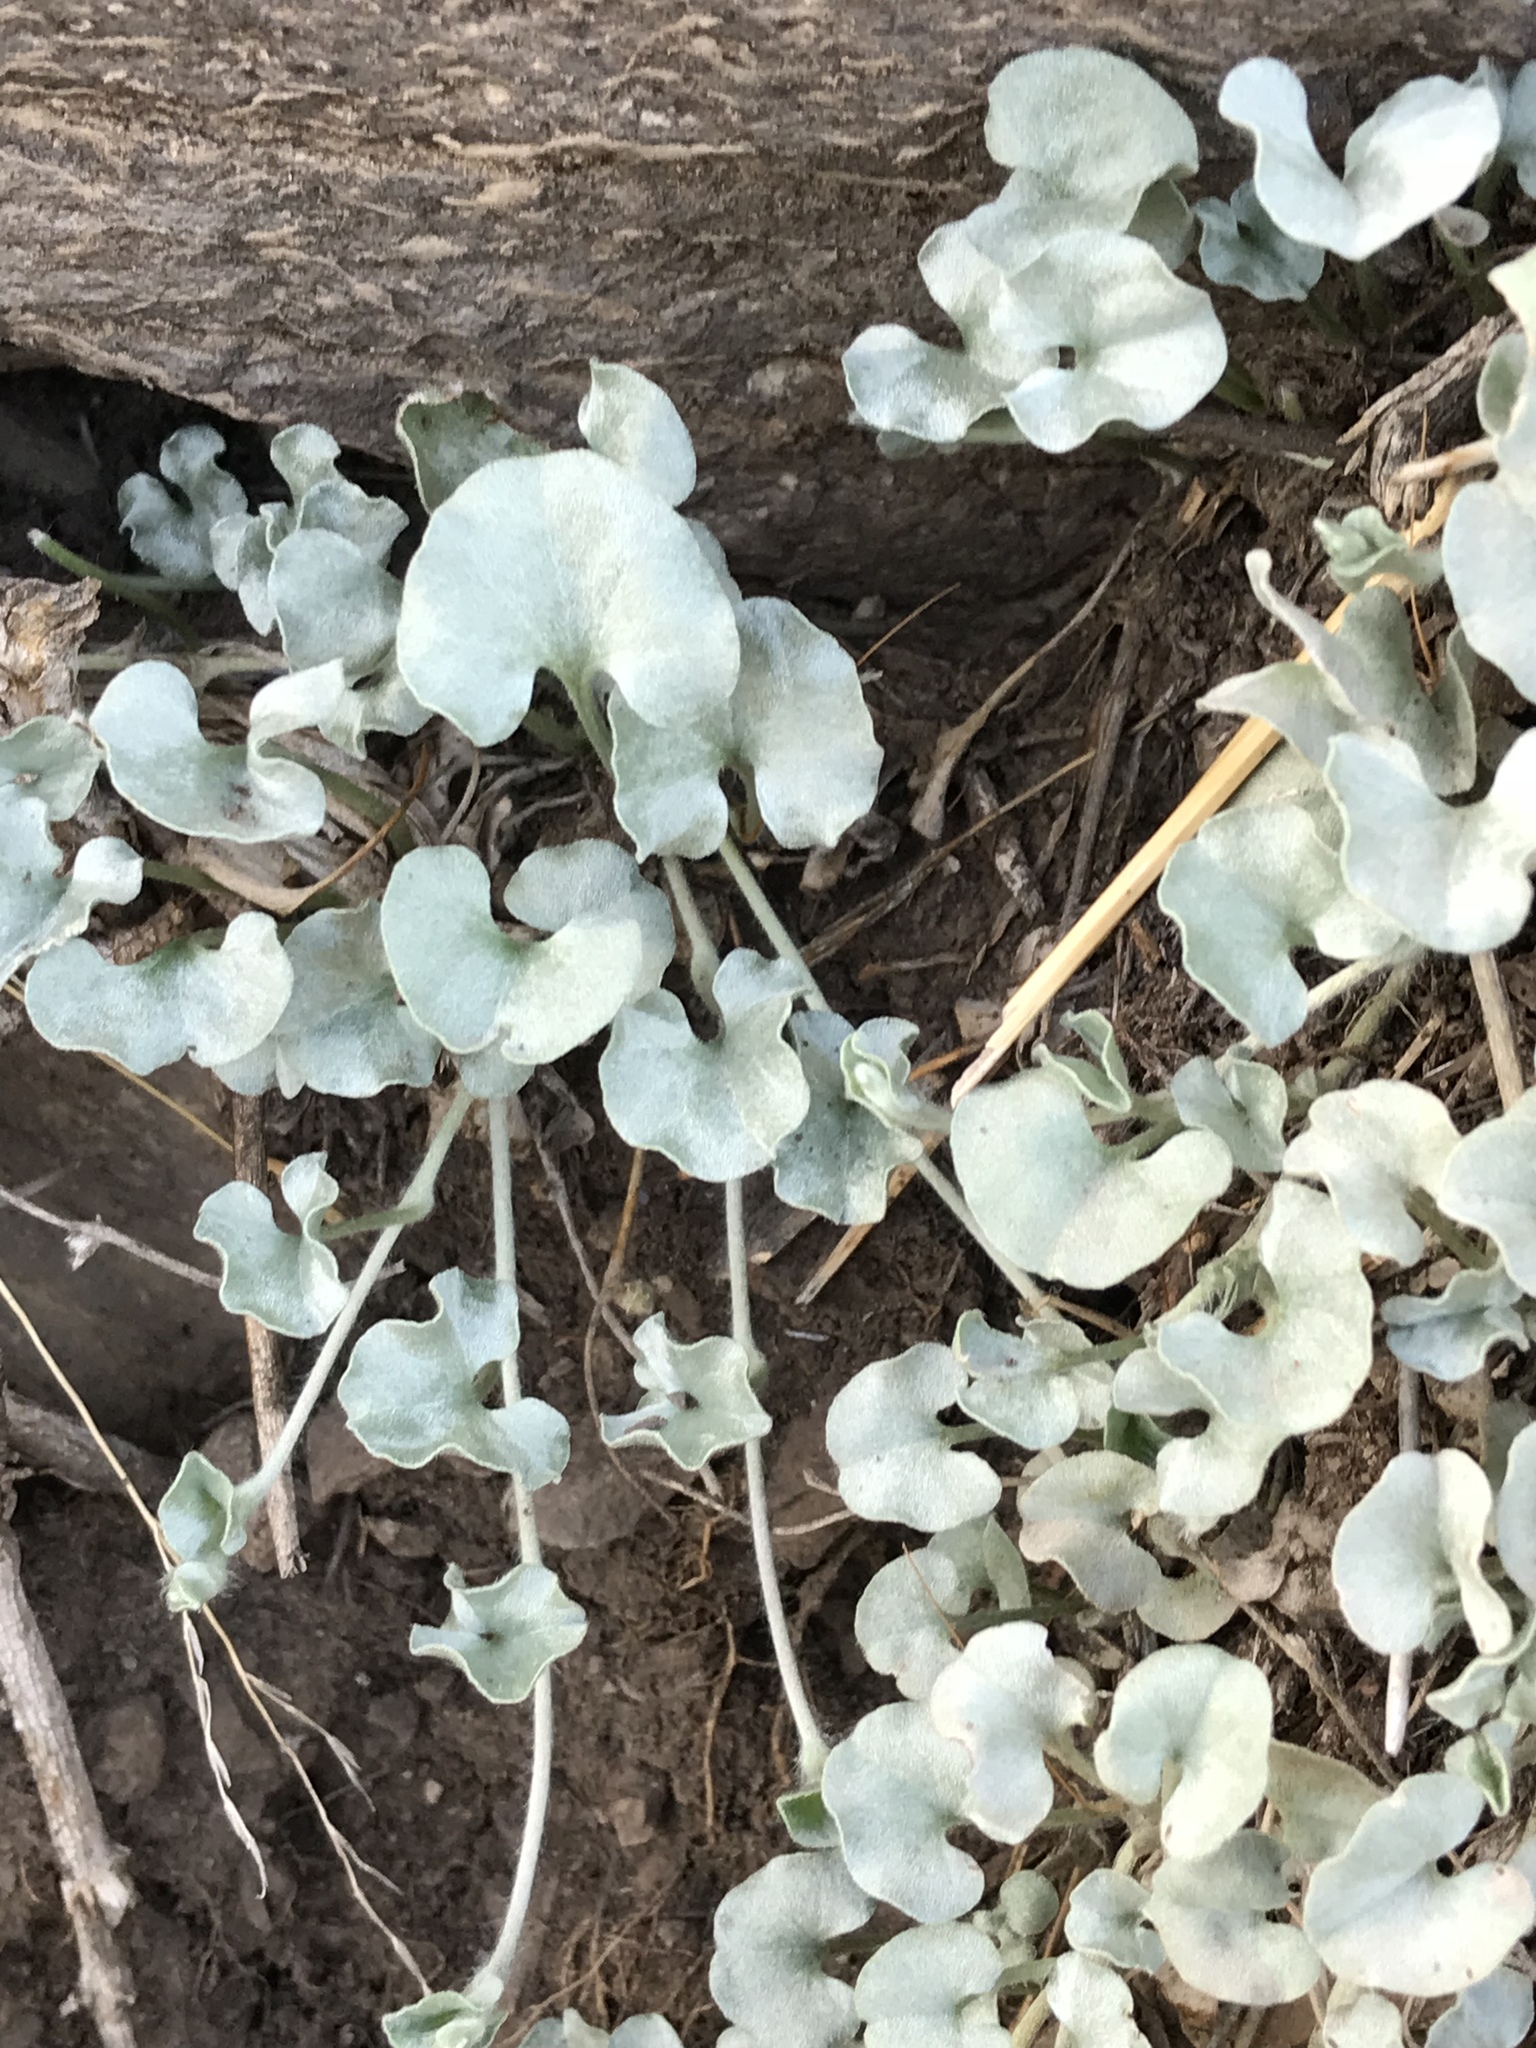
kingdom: Plantae
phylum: Tracheophyta
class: Magnoliopsida
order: Solanales
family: Convolvulaceae
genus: Dichondra
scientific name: Dichondra argentea
